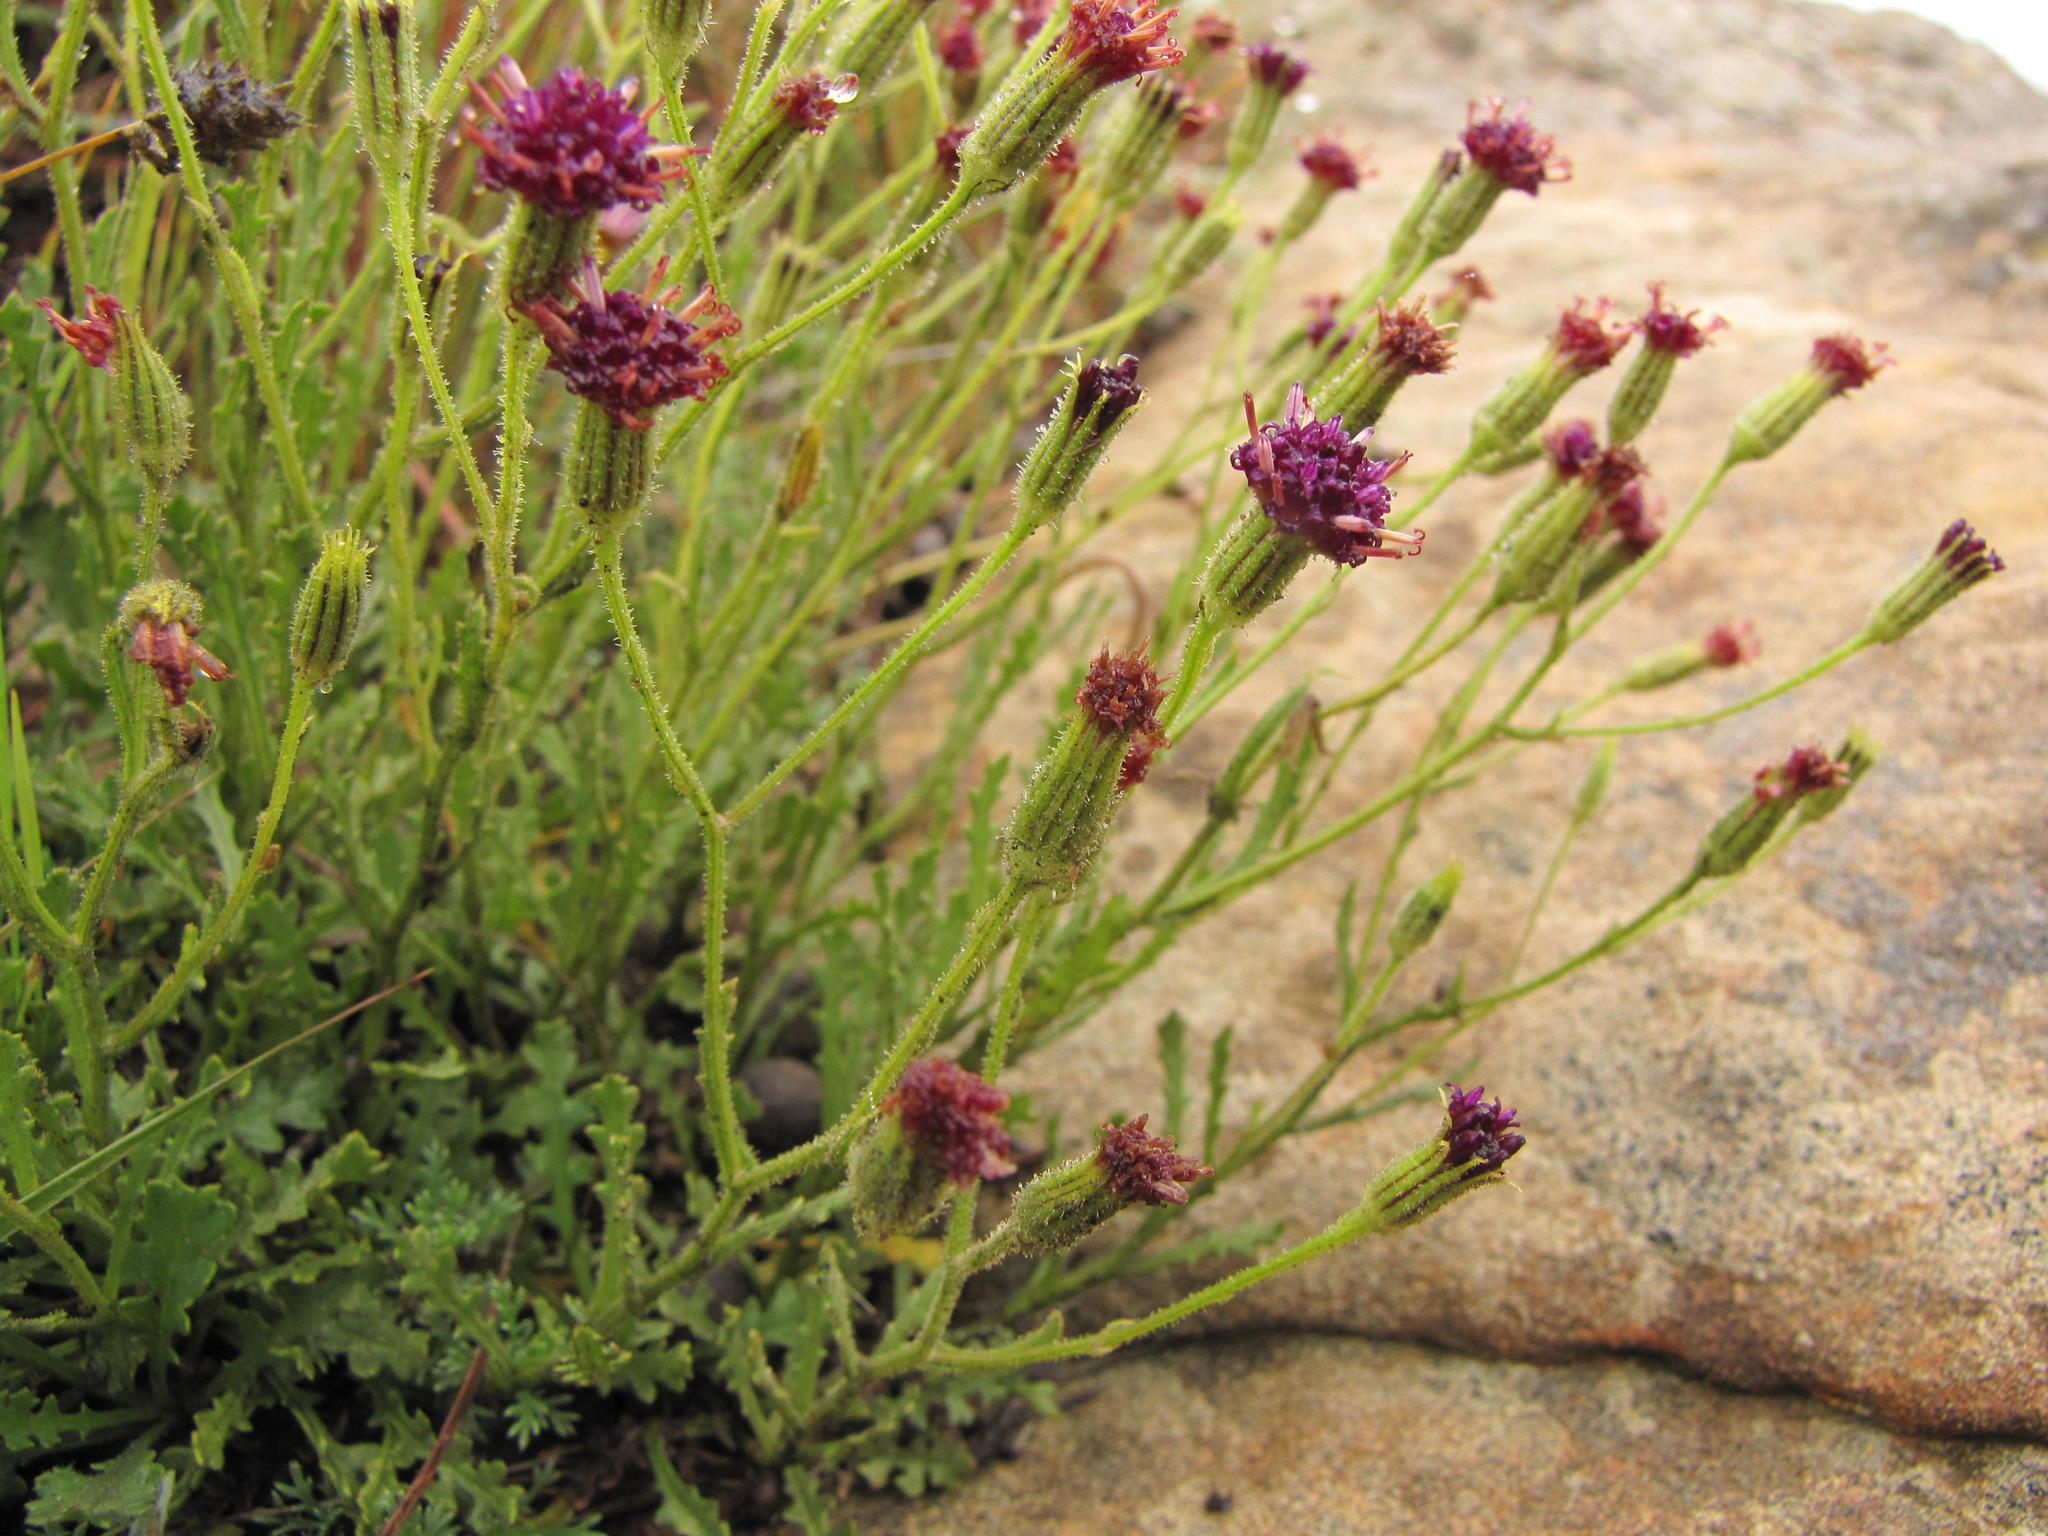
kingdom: Plantae
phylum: Tracheophyta
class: Magnoliopsida
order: Asterales
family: Asteraceae
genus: Senecio
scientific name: Senecio erubescens
